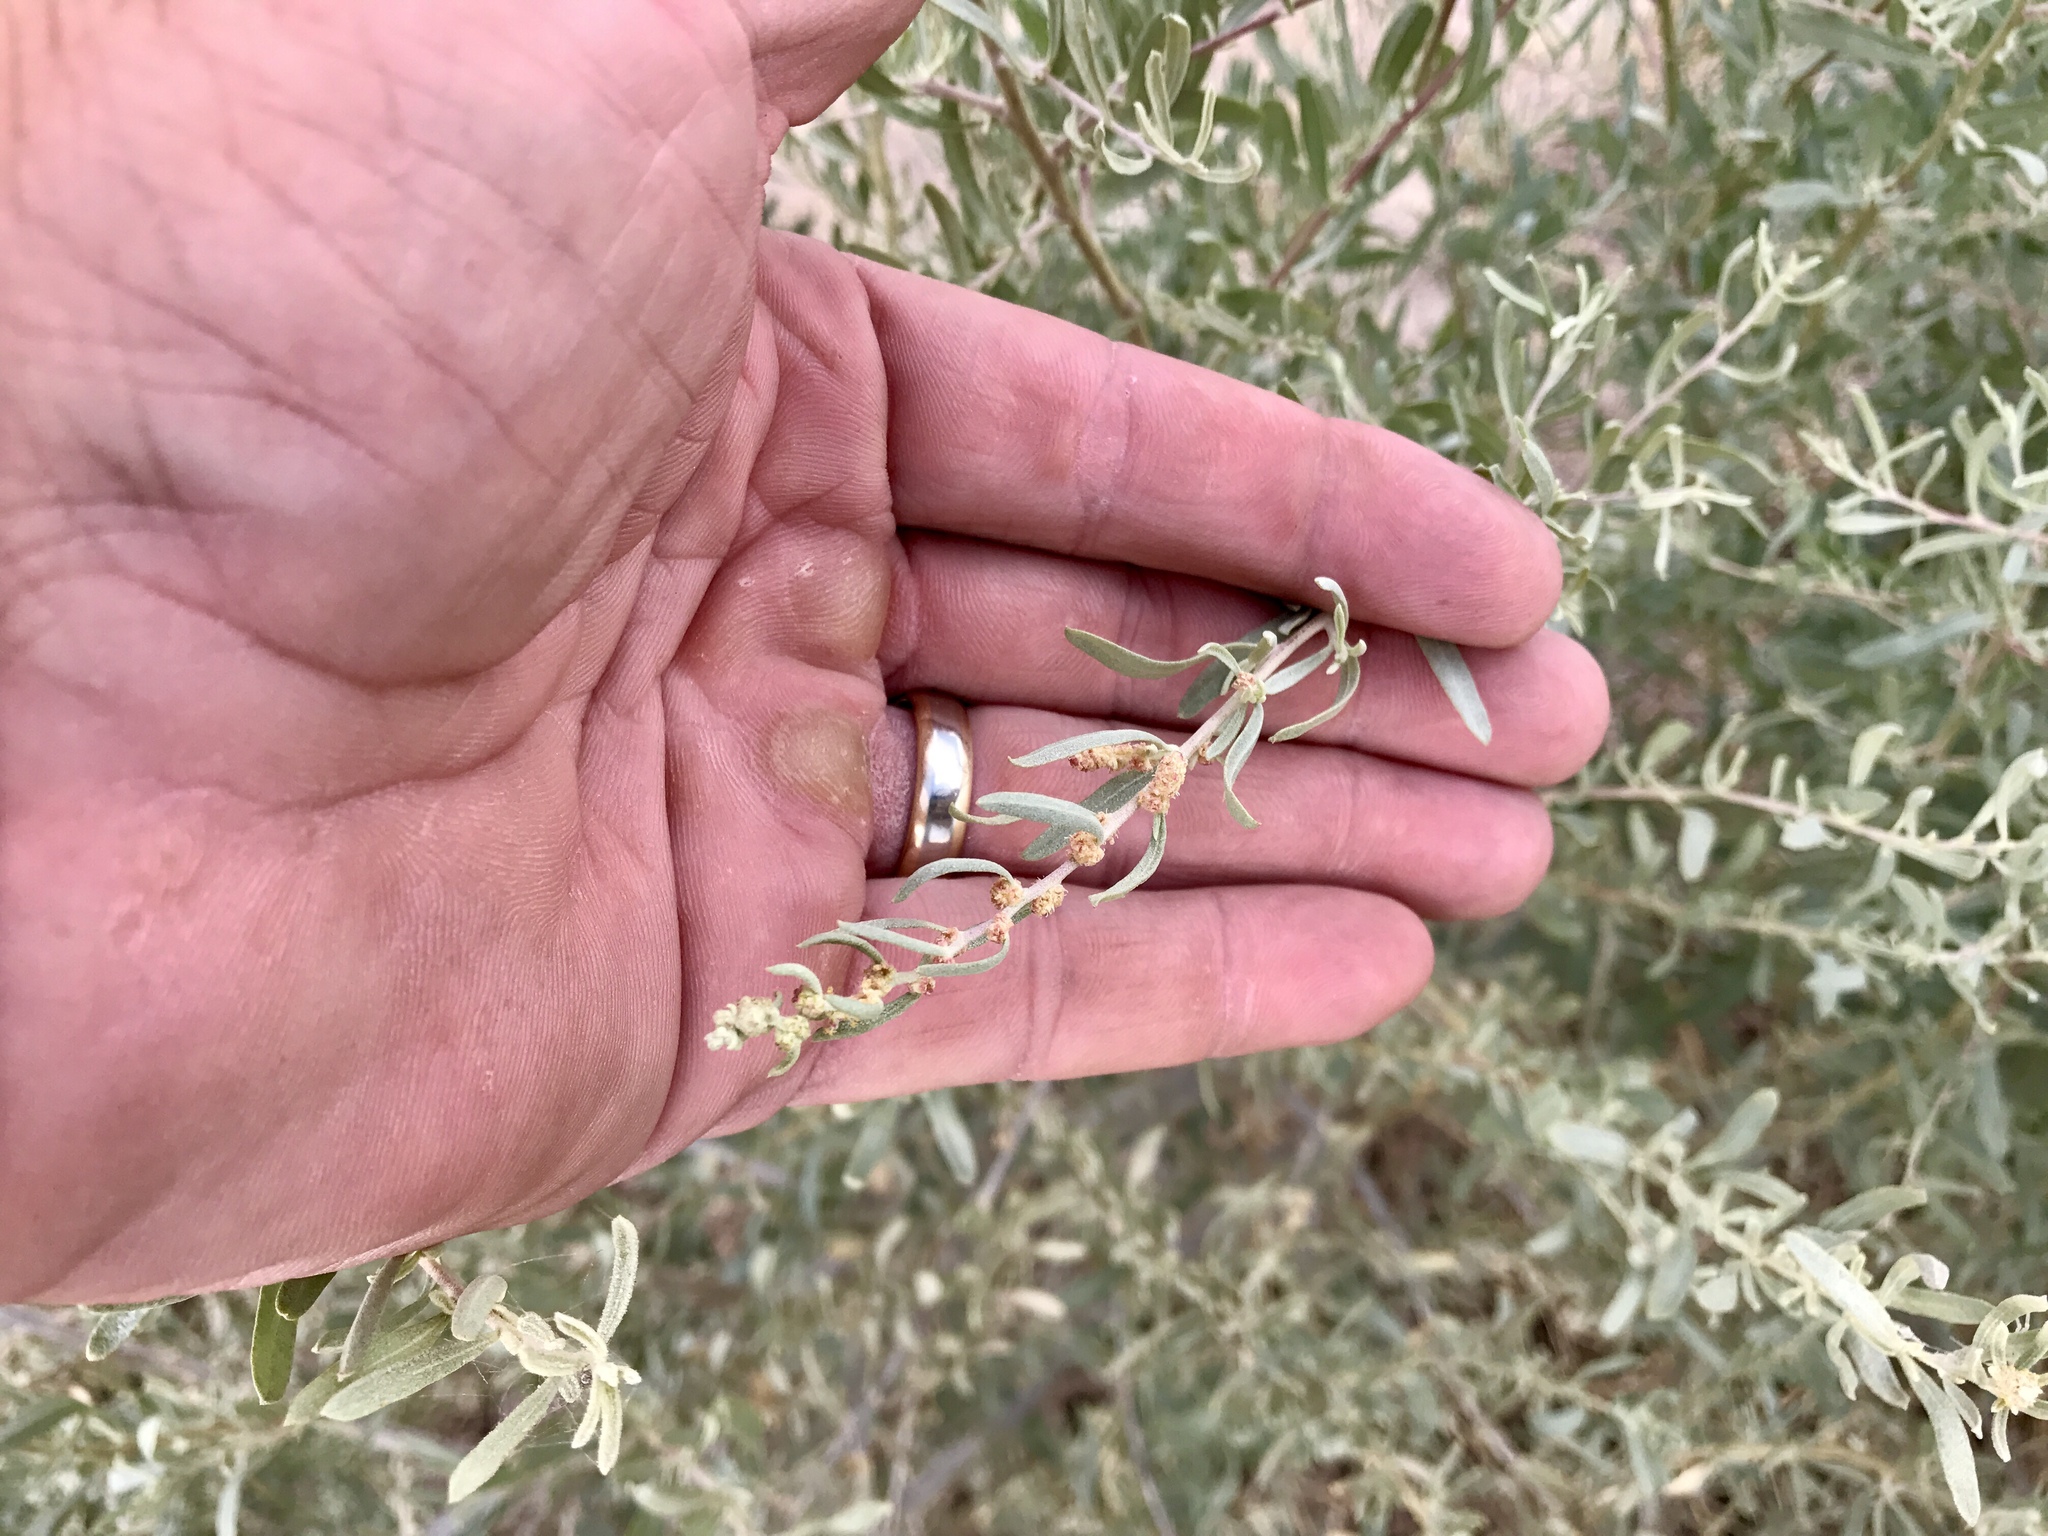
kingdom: Plantae
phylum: Tracheophyta
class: Magnoliopsida
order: Caryophyllales
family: Amaranthaceae
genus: Atriplex
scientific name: Atriplex canescens
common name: Four-wing saltbush
